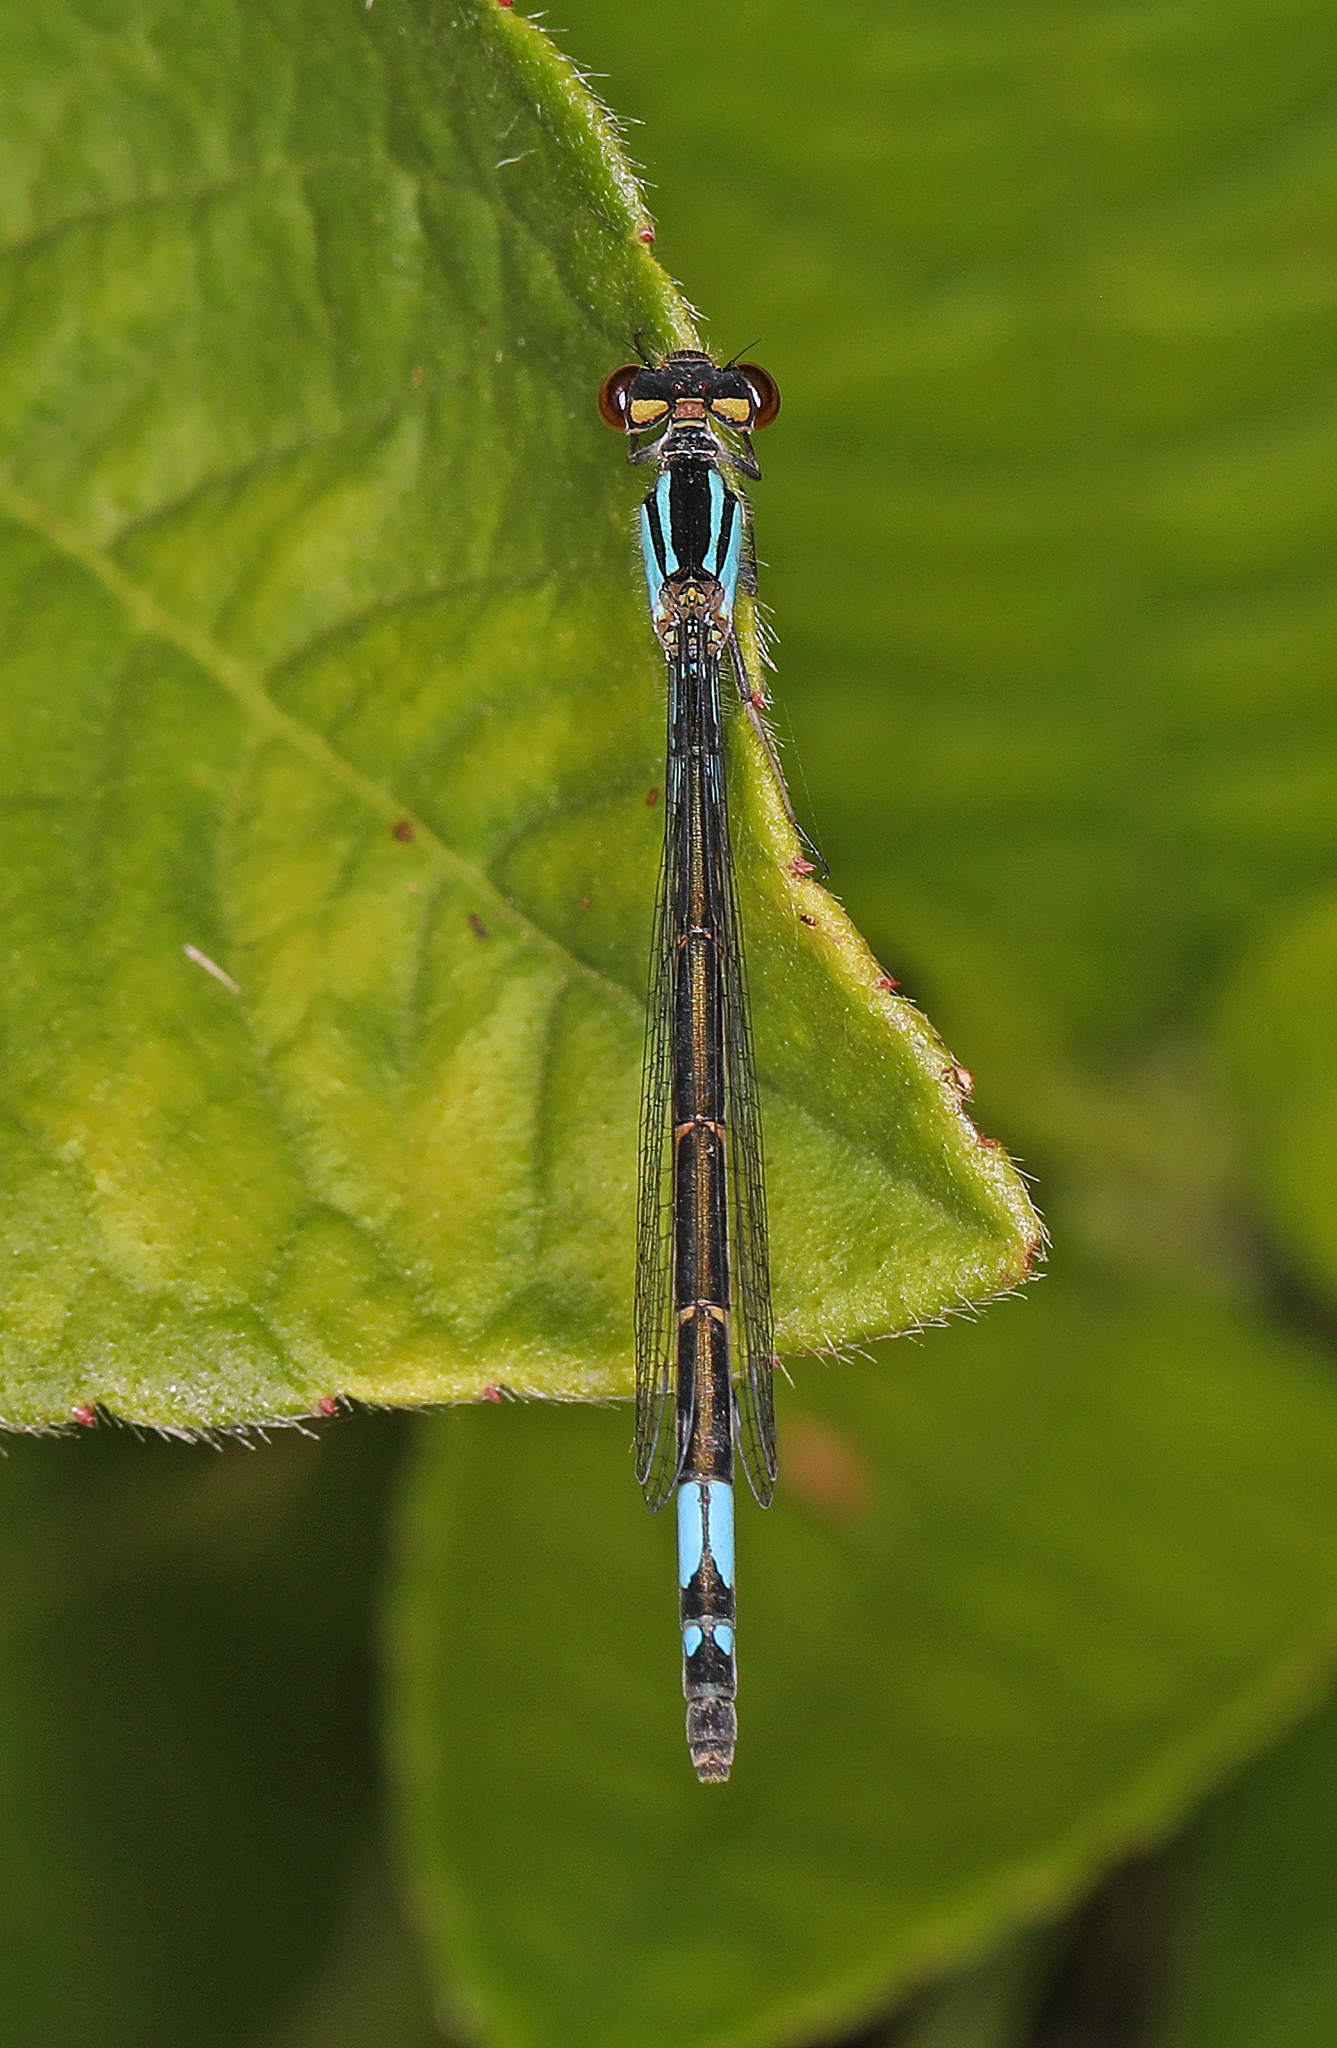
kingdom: Animalia
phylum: Arthropoda
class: Insecta
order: Odonata
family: Coenagrionidae
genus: Enallagma
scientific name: Enallagma aspersum
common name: Azure bluet
